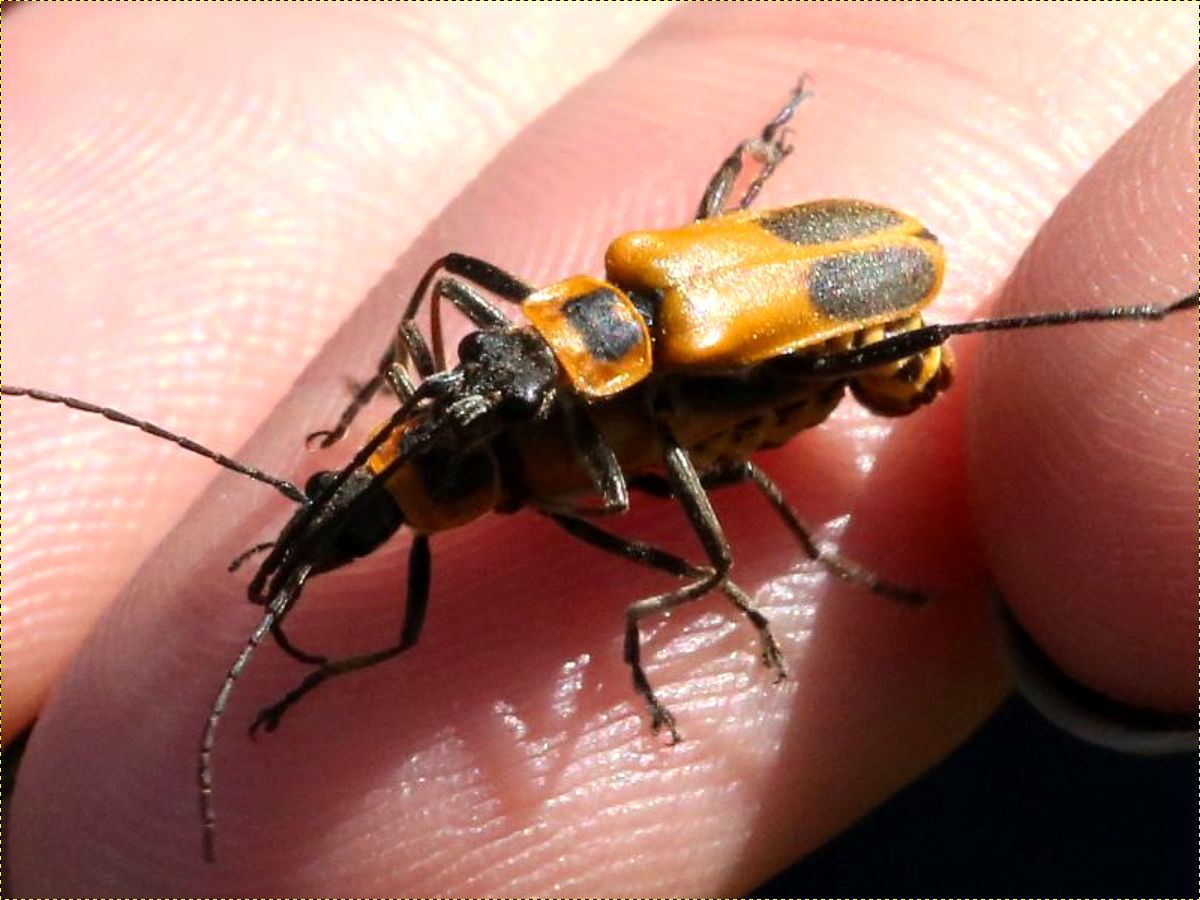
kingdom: Animalia
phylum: Arthropoda
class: Insecta
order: Coleoptera
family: Cantharidae
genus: Chauliognathus
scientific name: Chauliognathus pensylvanicus
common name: Goldenrod soldier beetle
